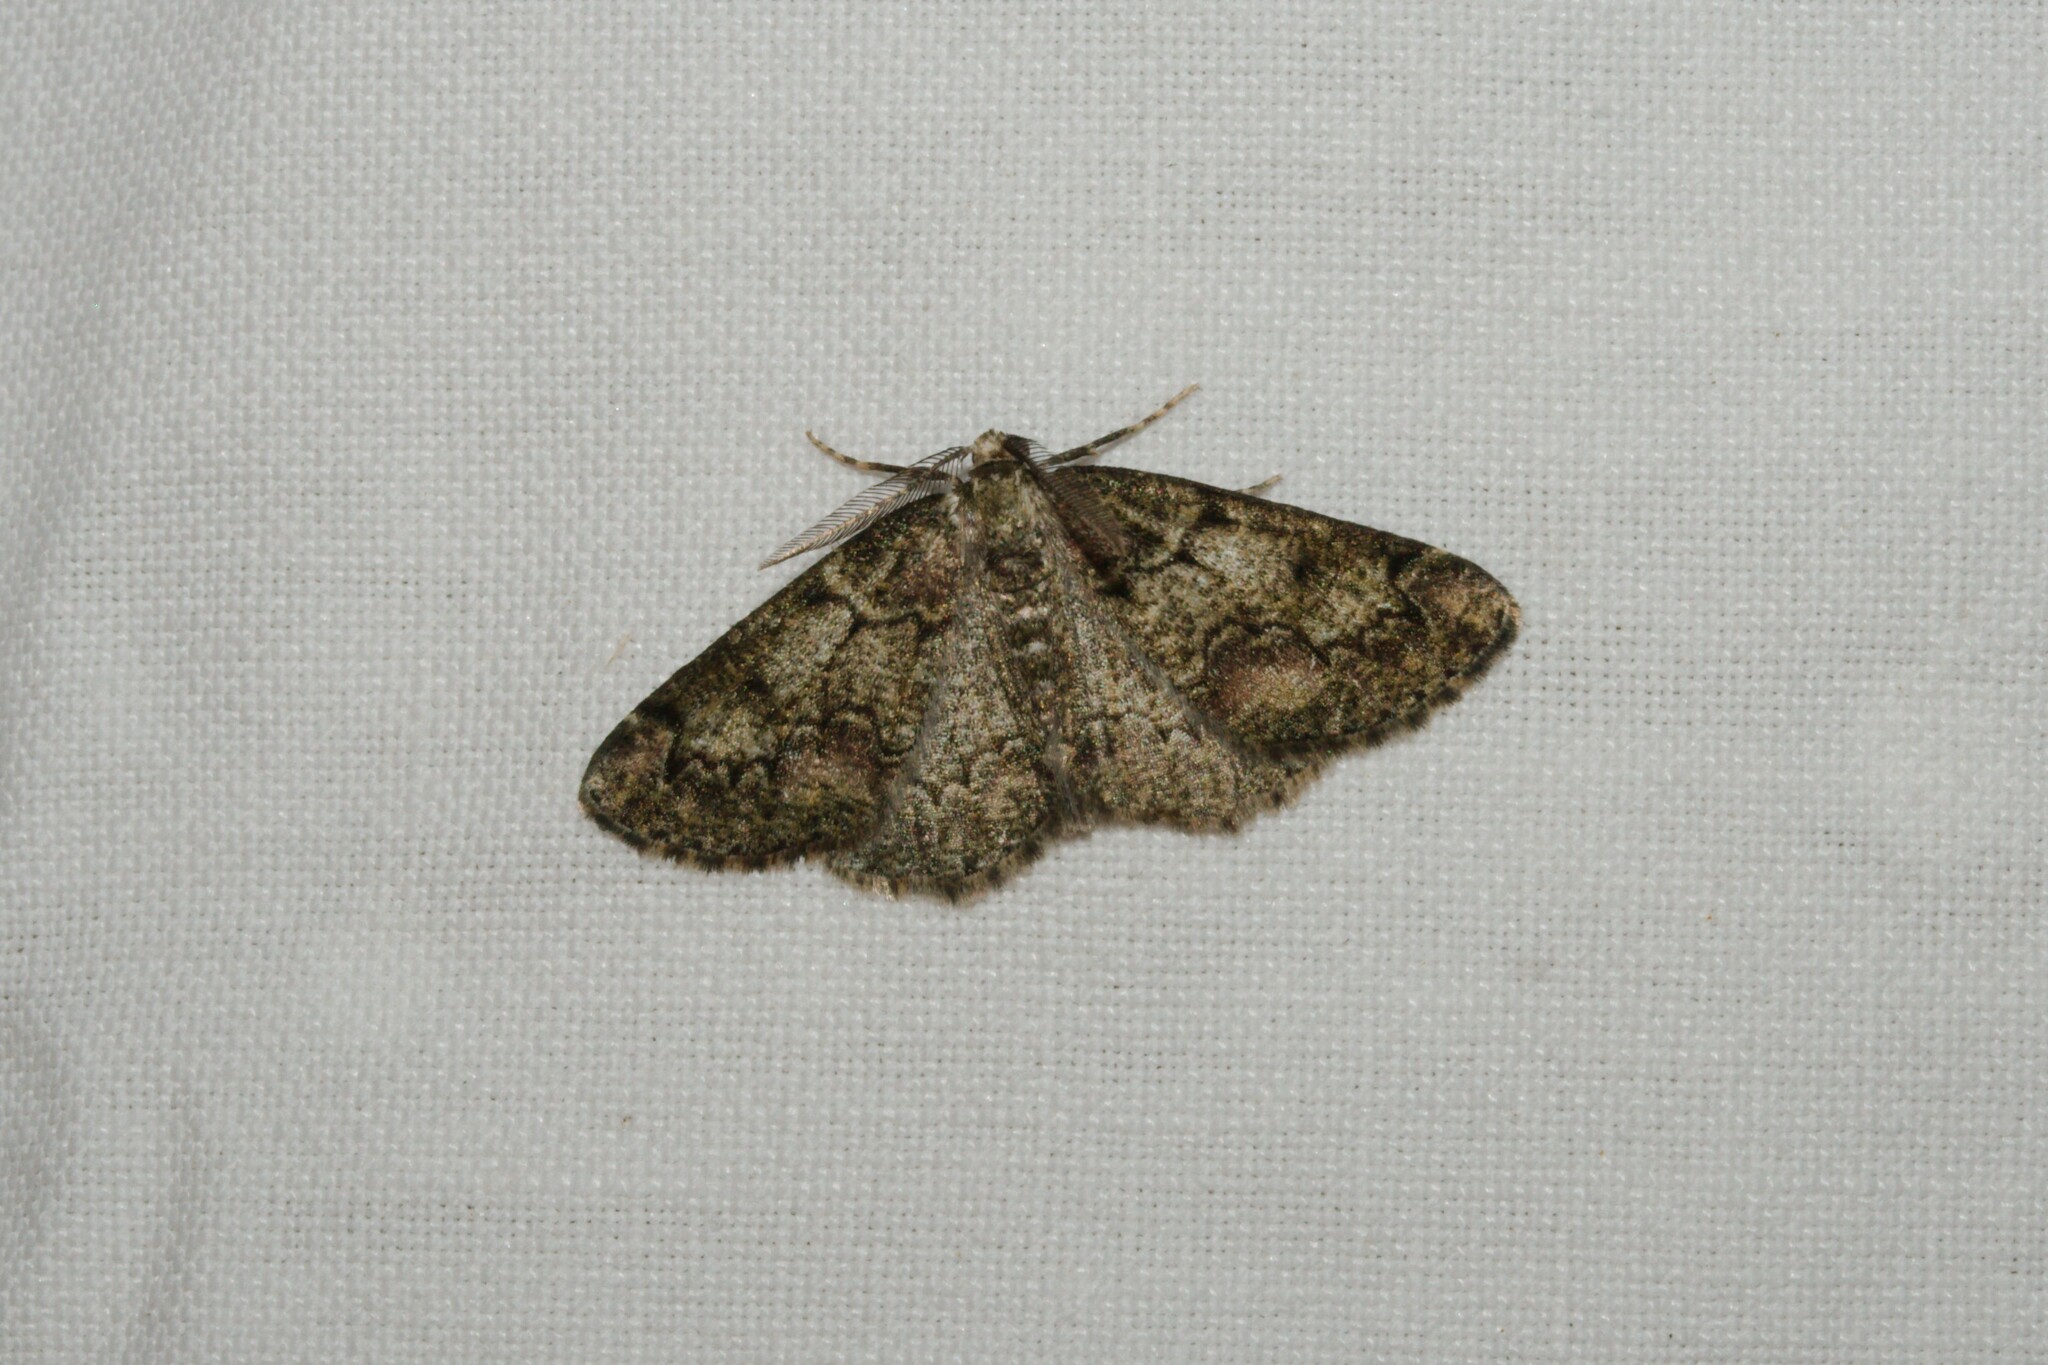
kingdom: Animalia
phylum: Arthropoda
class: Insecta
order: Lepidoptera
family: Geometridae
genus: Cleorodes
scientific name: Cleorodes lichenaria
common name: Brussels lace
